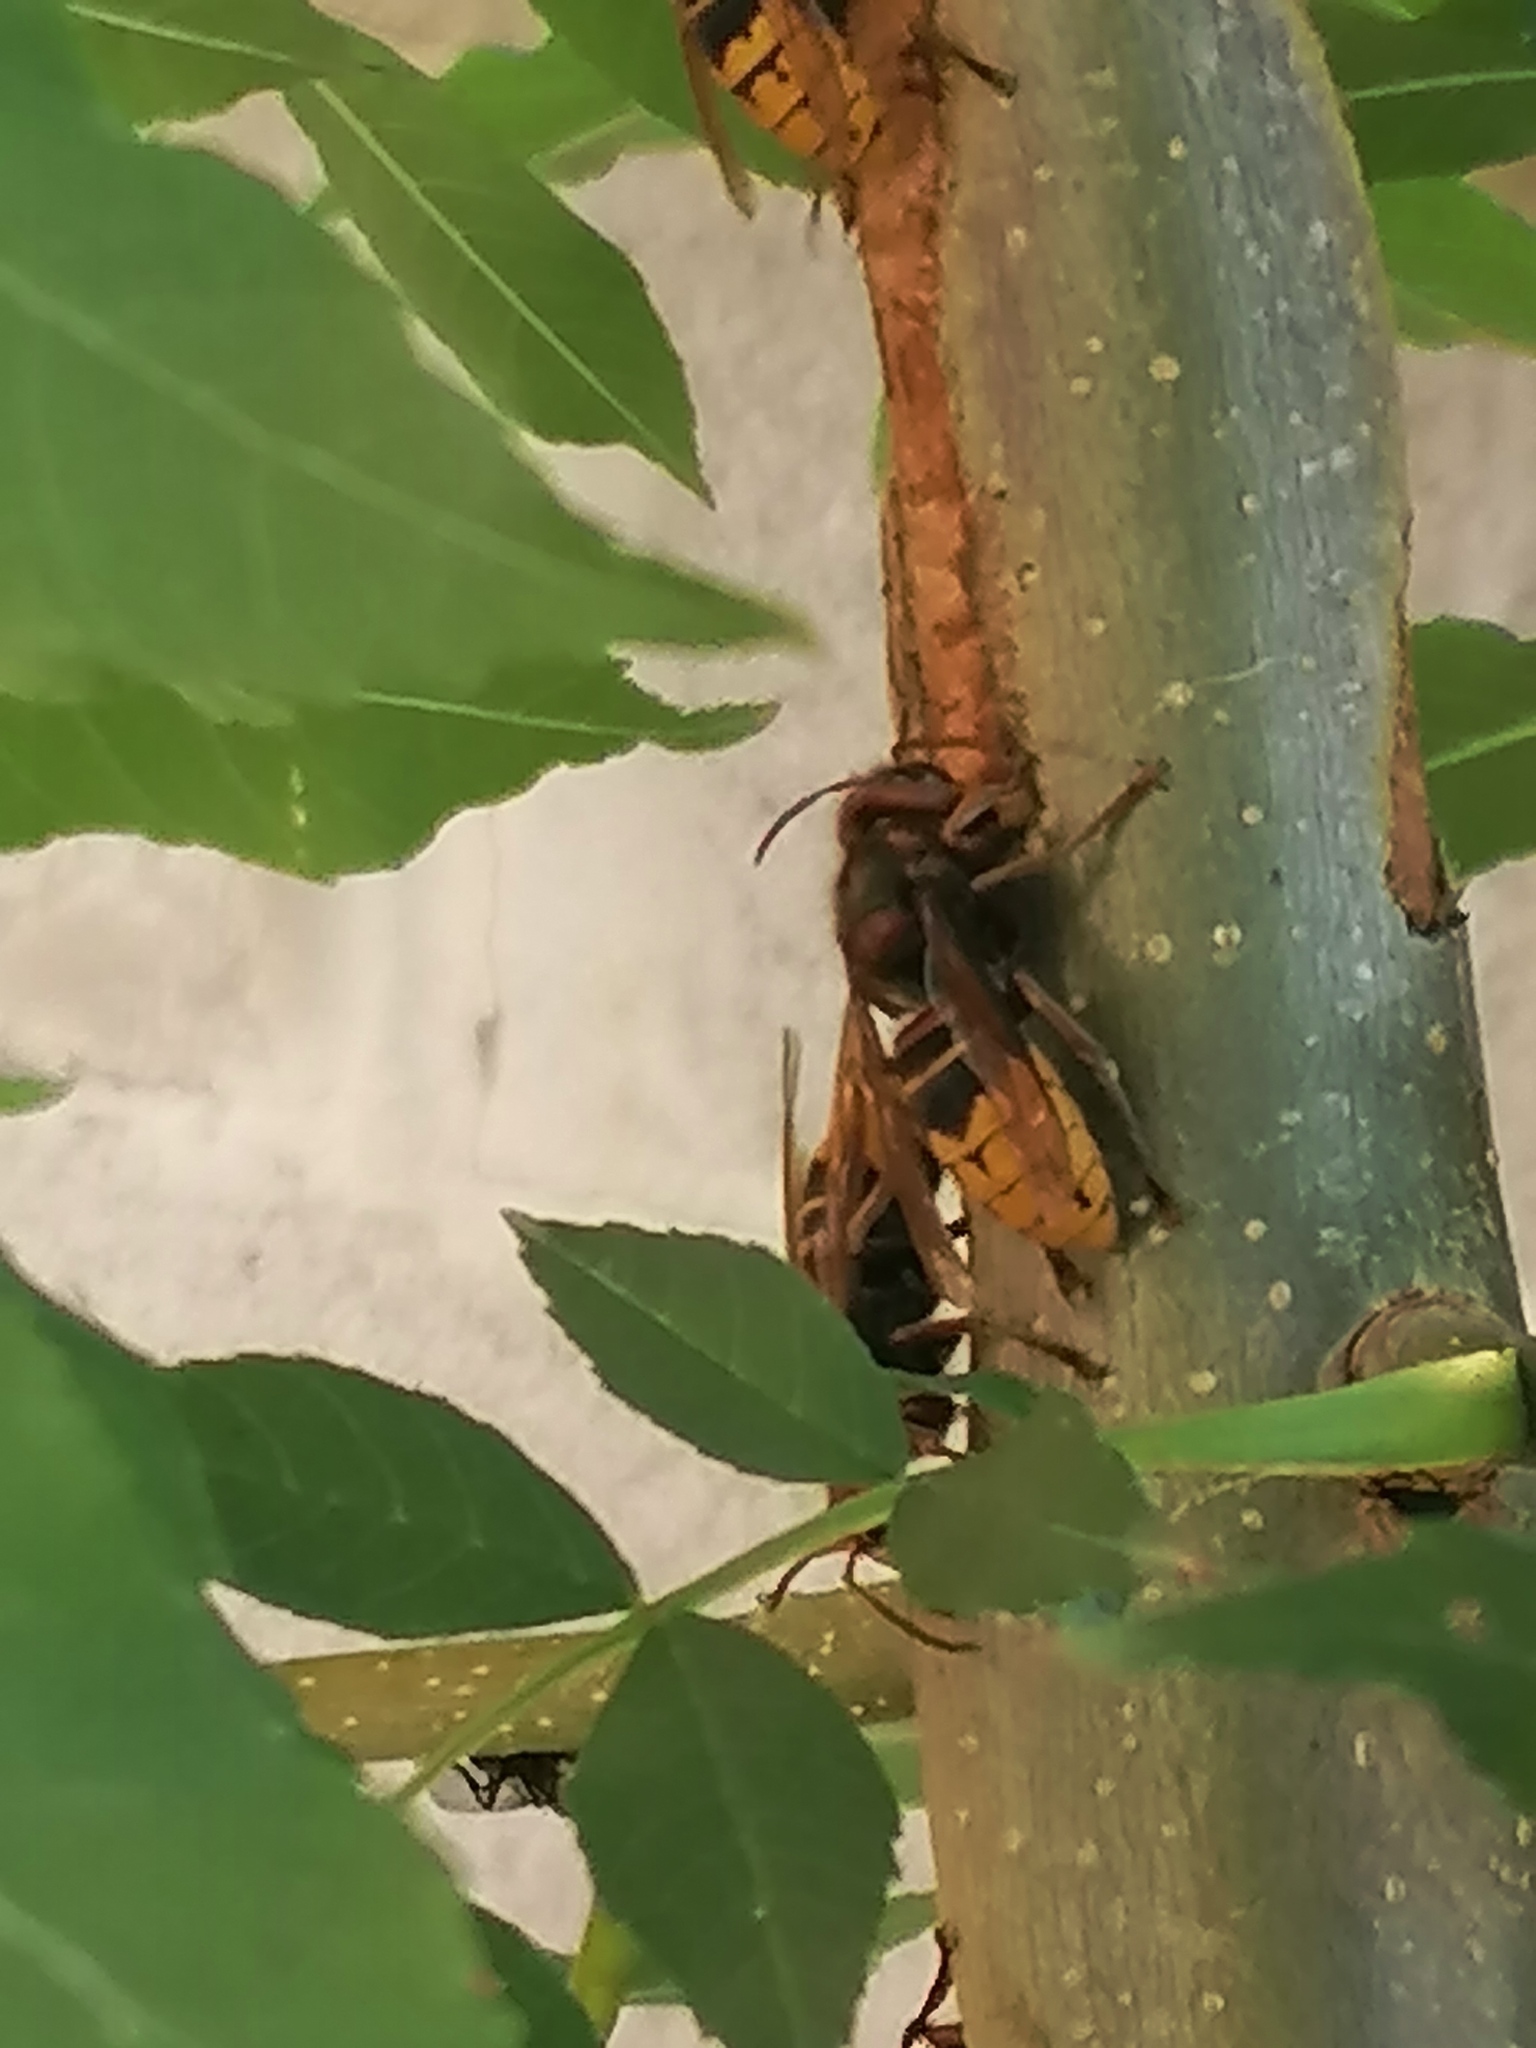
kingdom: Animalia
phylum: Arthropoda
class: Insecta
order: Hymenoptera
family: Vespidae
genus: Vespa
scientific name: Vespa crabro
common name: Hornet
